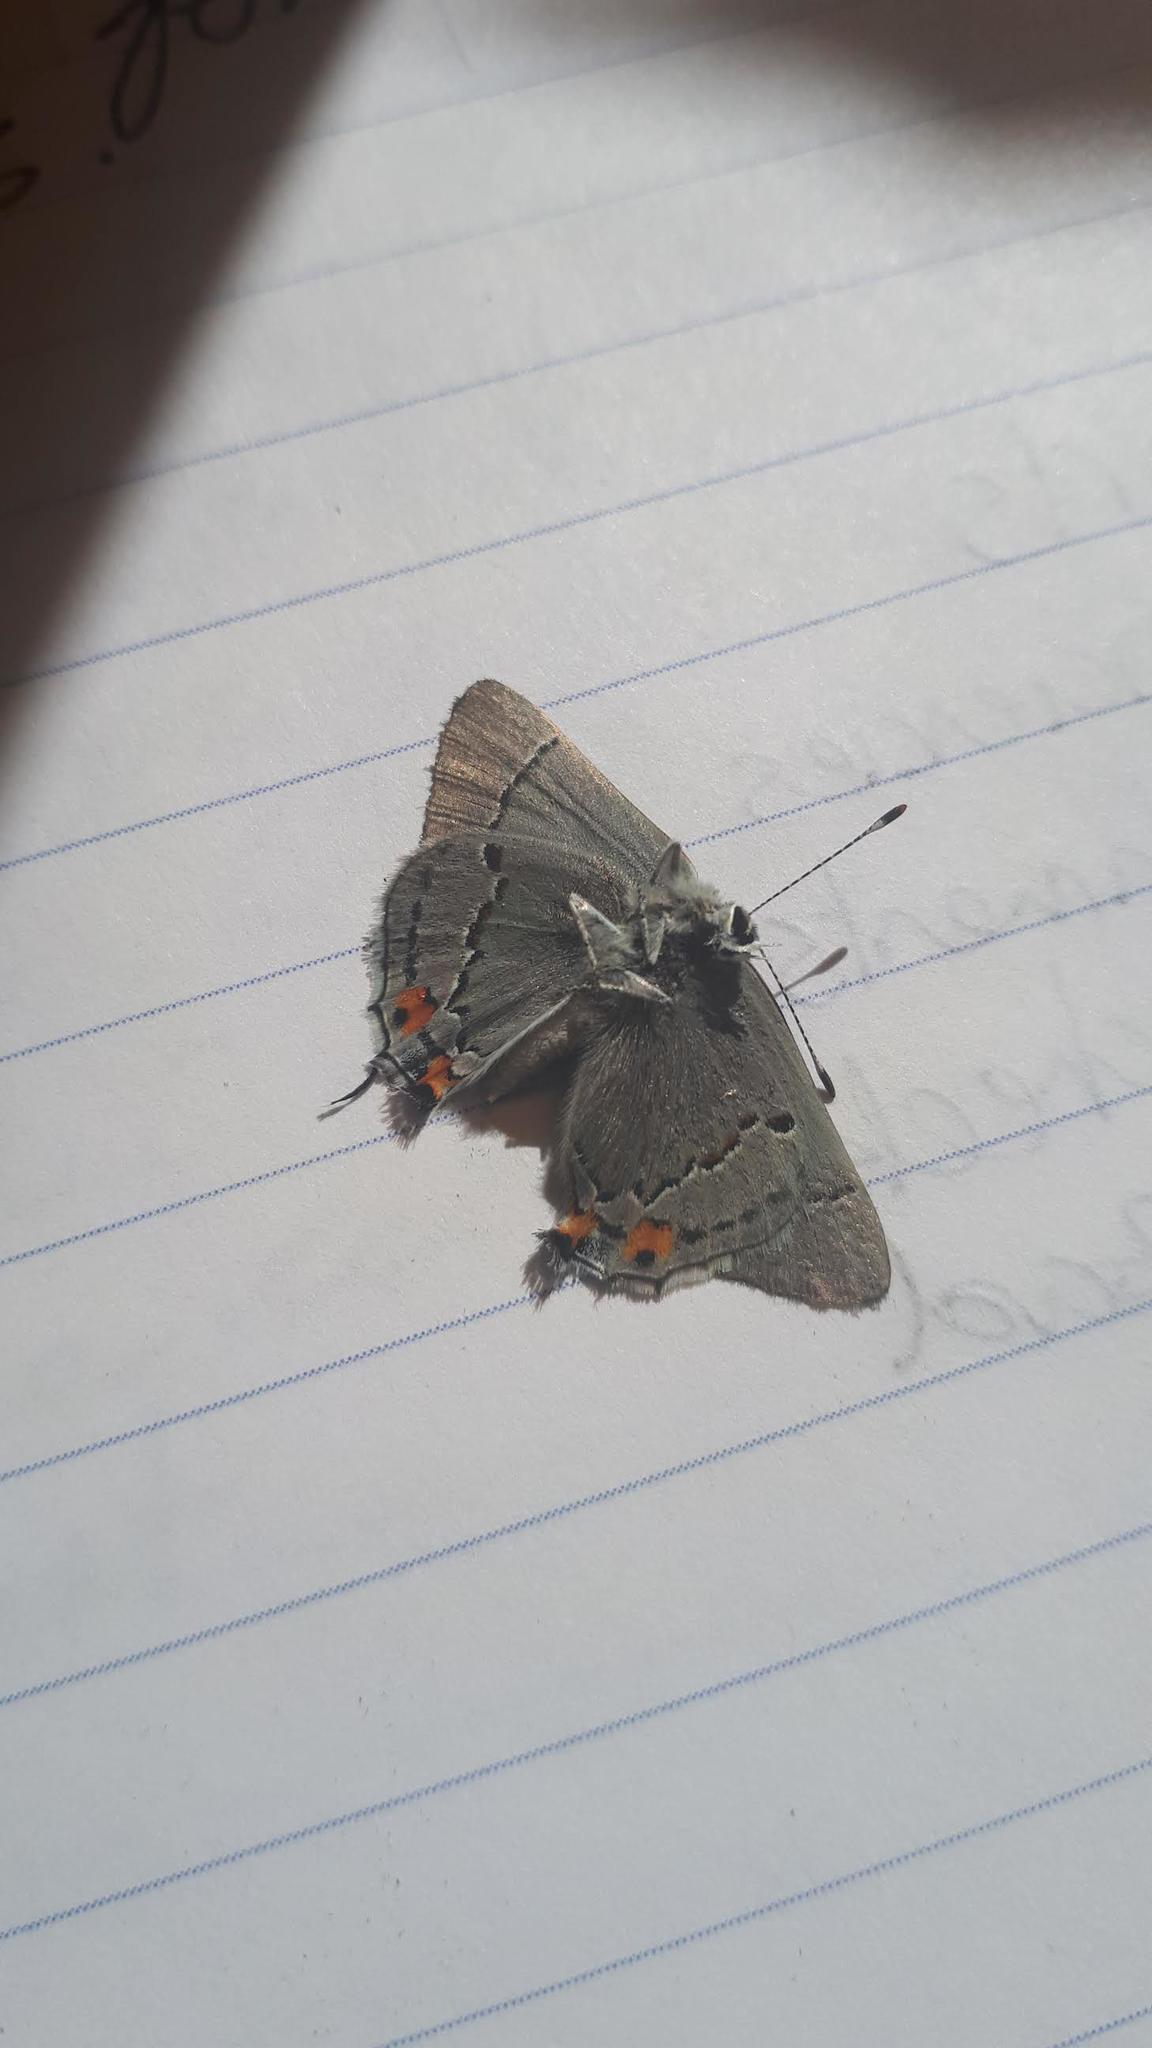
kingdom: Animalia
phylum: Arthropoda
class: Insecta
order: Lepidoptera
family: Lycaenidae
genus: Strymon
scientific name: Strymon melinus
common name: Gray hairstreak
